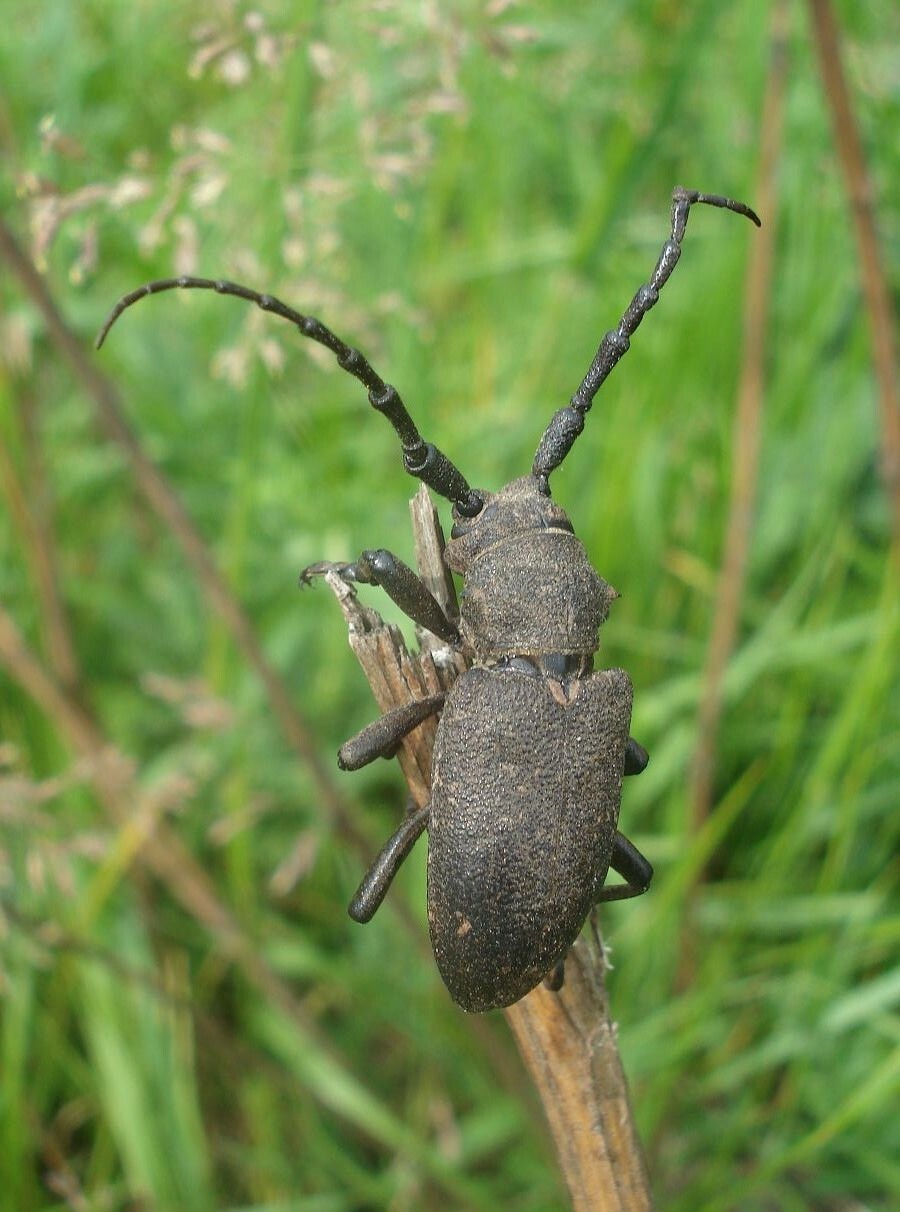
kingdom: Animalia
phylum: Arthropoda
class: Insecta
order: Coleoptera
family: Cerambycidae
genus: Lamia
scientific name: Lamia textor
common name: Weaver beetle
